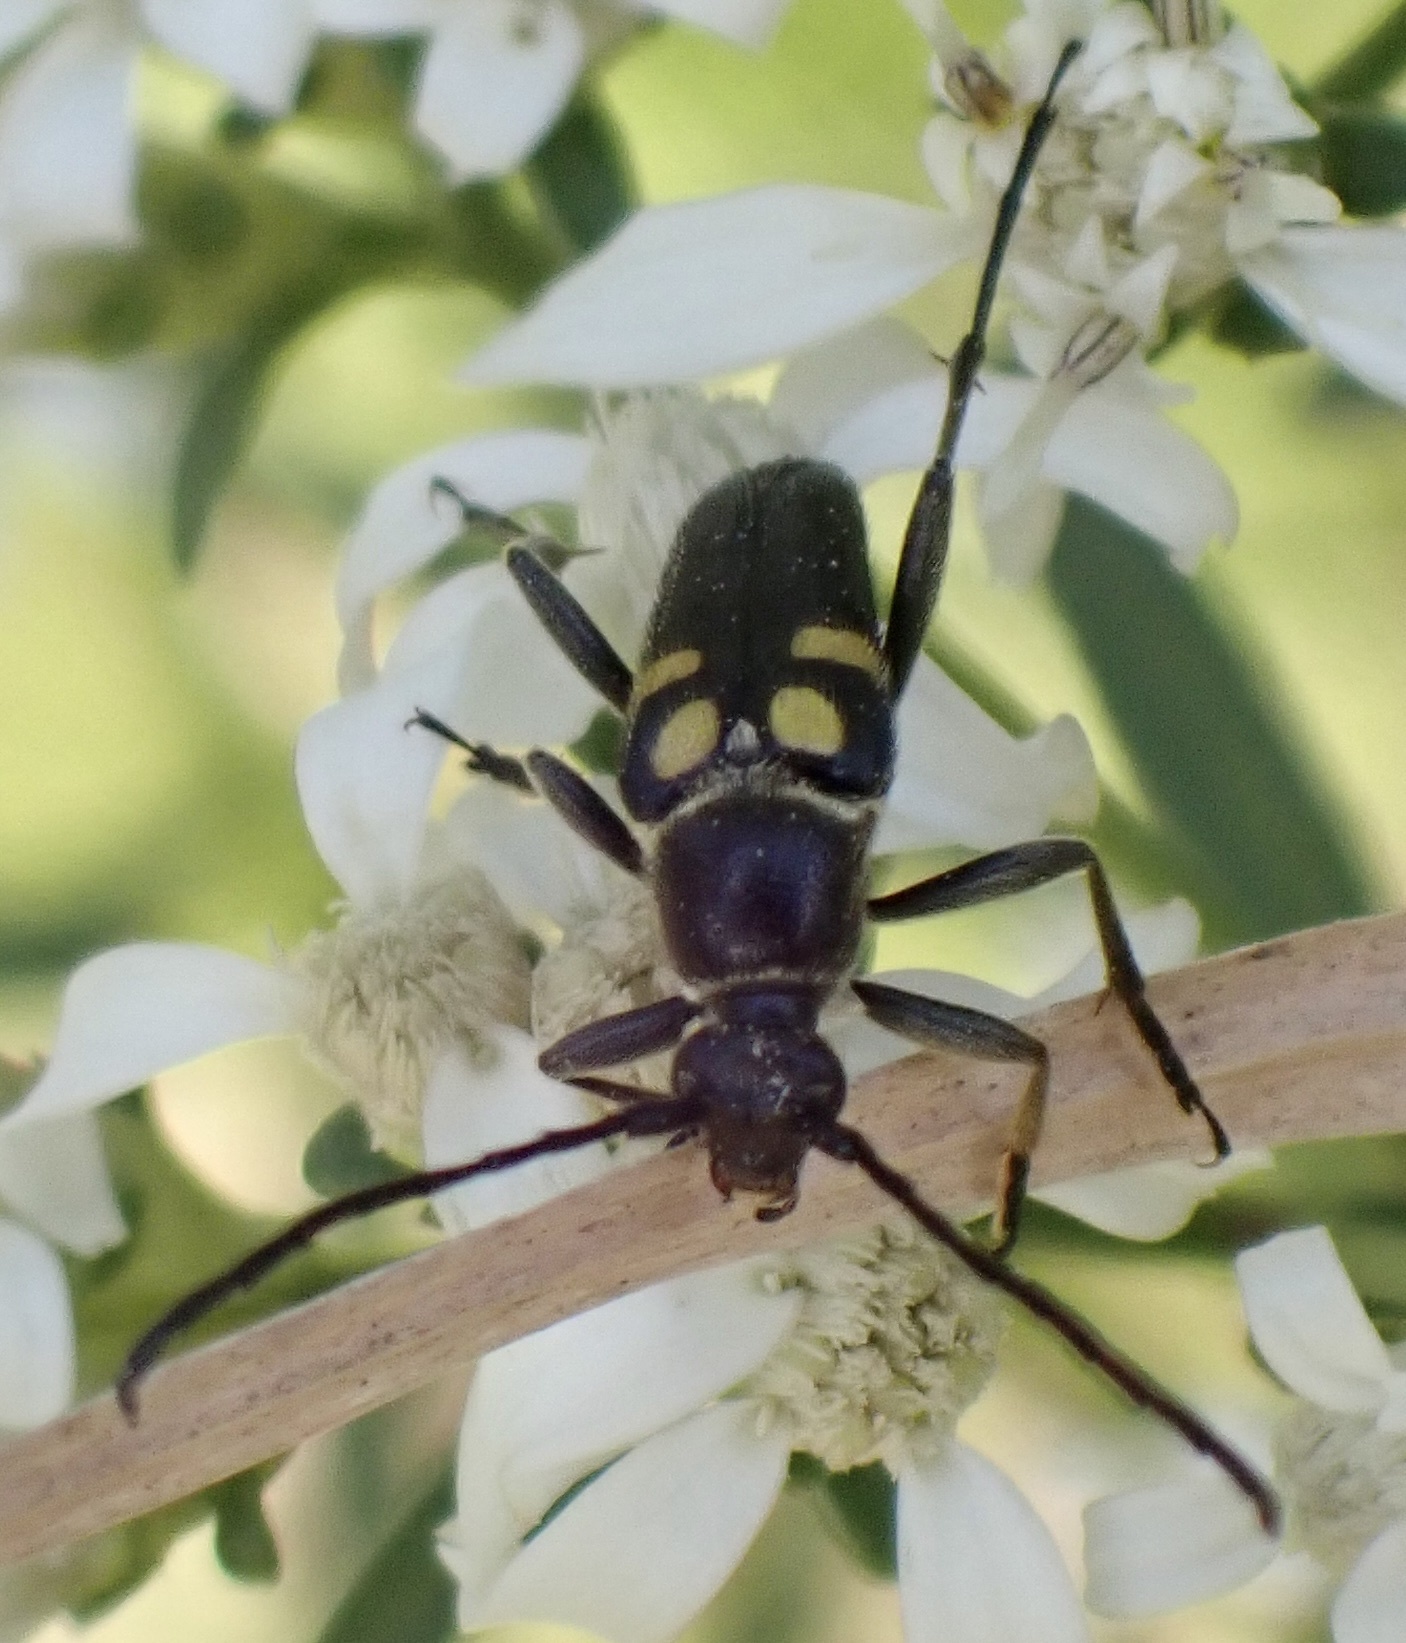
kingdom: Animalia
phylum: Arthropoda
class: Insecta
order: Coleoptera
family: Cerambycidae
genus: Typocerus
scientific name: Typocerus lunulatus
